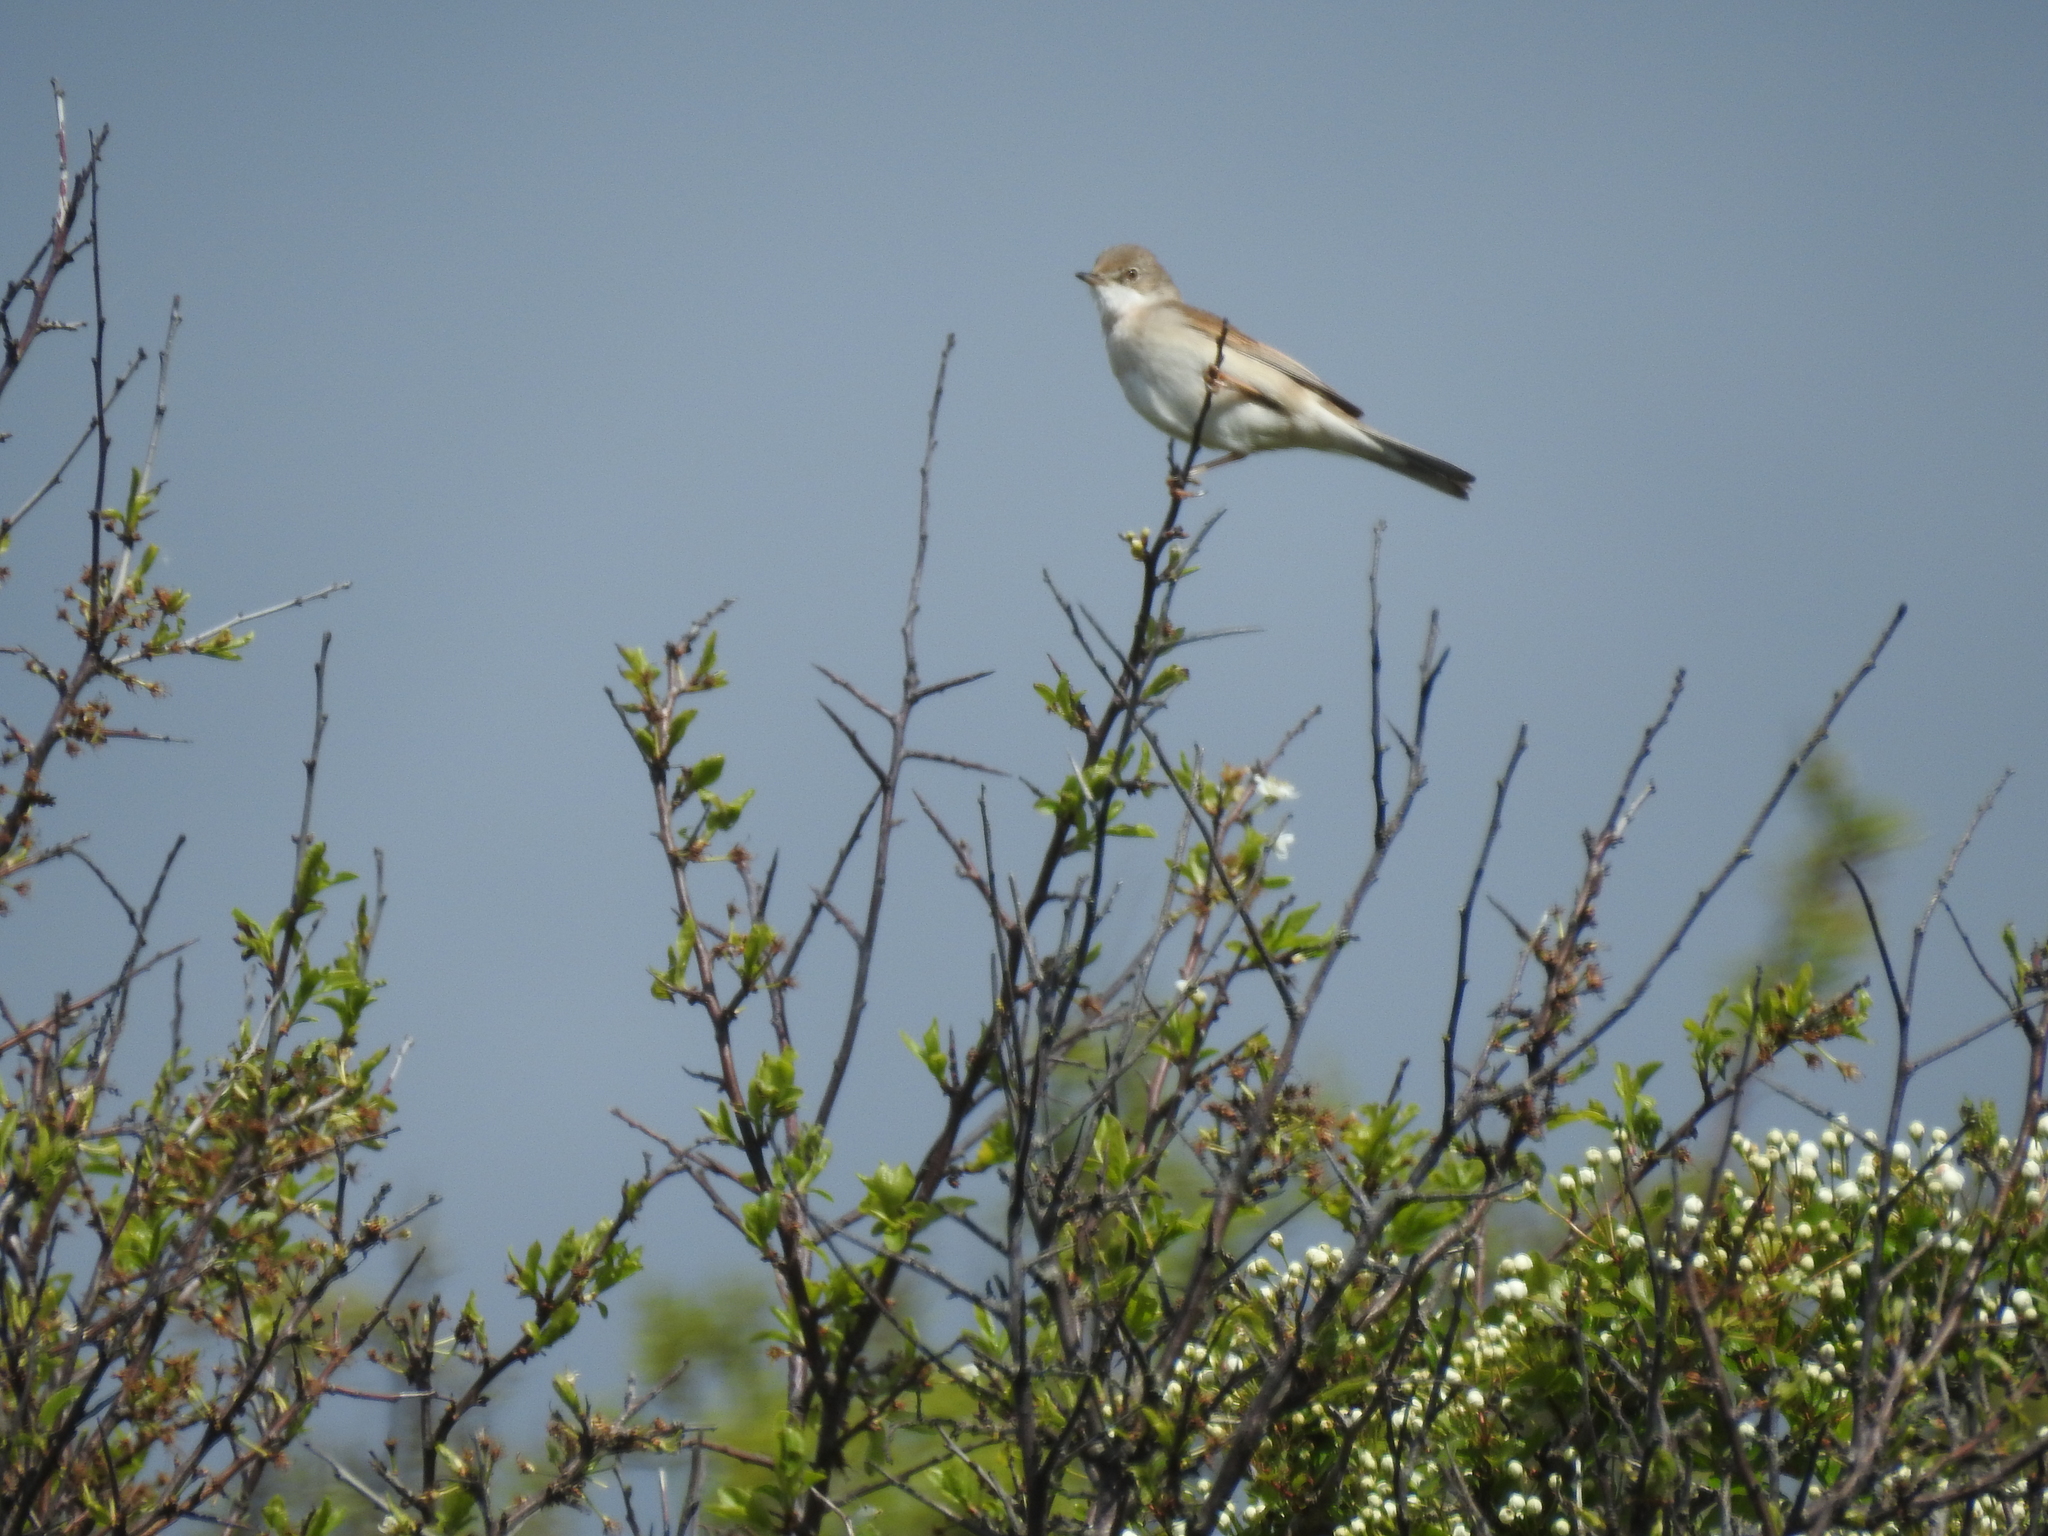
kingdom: Animalia
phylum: Chordata
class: Aves
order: Passeriformes
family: Sylviidae
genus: Sylvia
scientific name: Sylvia communis
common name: Common whitethroat
